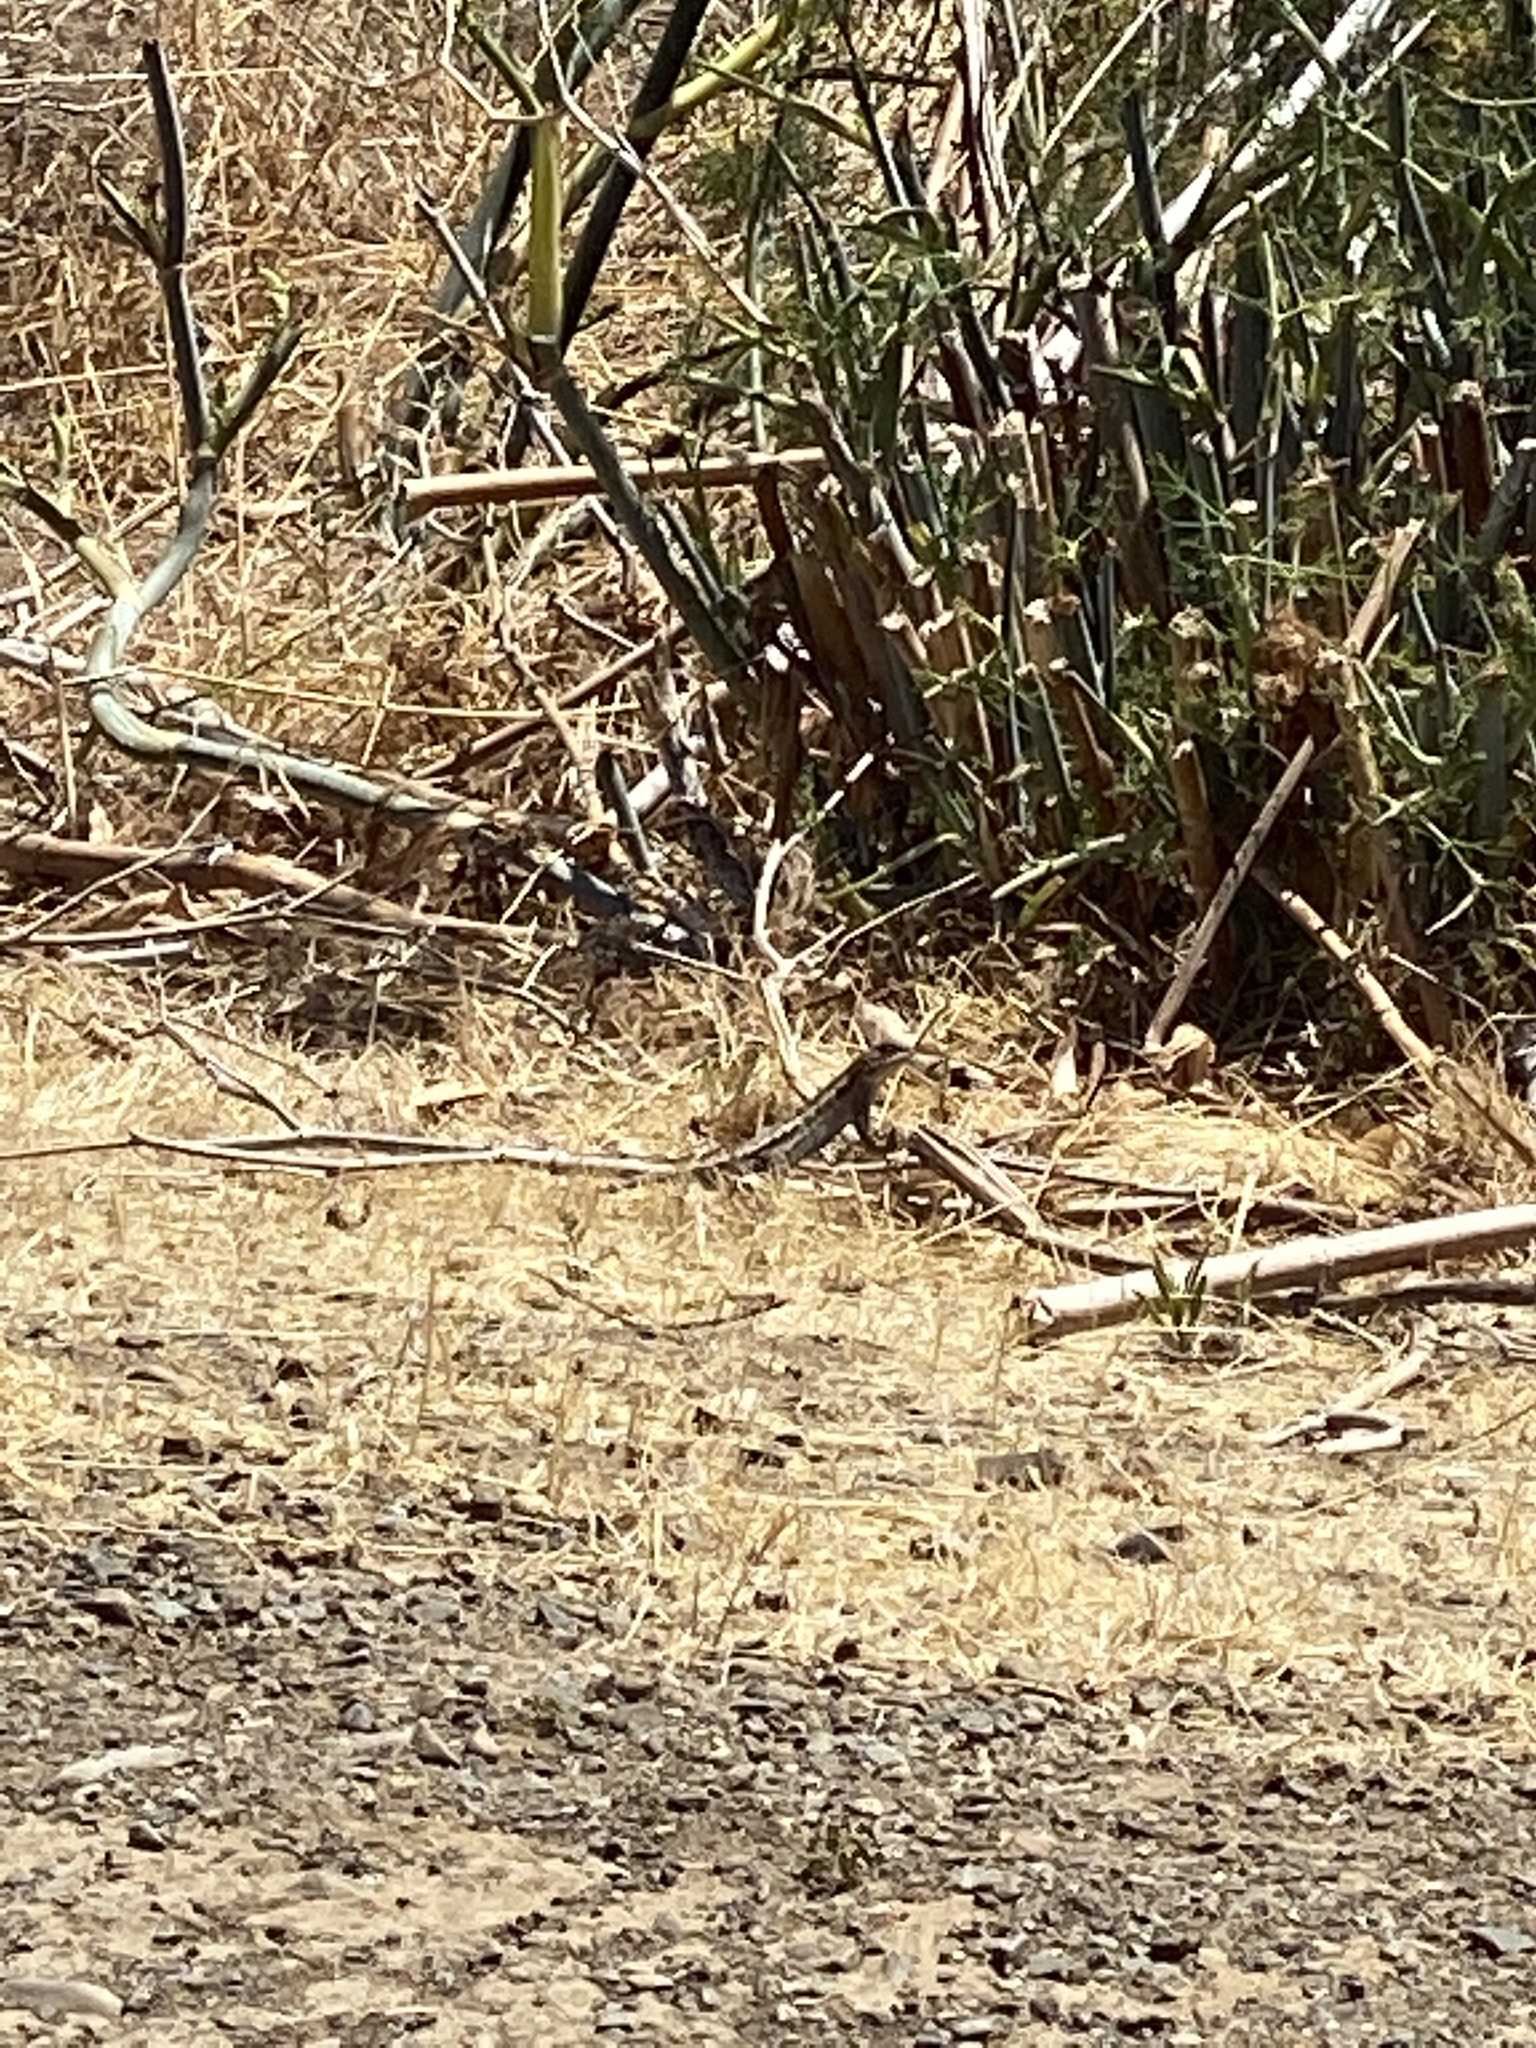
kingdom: Animalia
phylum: Chordata
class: Squamata
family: Phrynosomatidae
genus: Sceloporus
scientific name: Sceloporus occidentalis
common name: Western fence lizard
